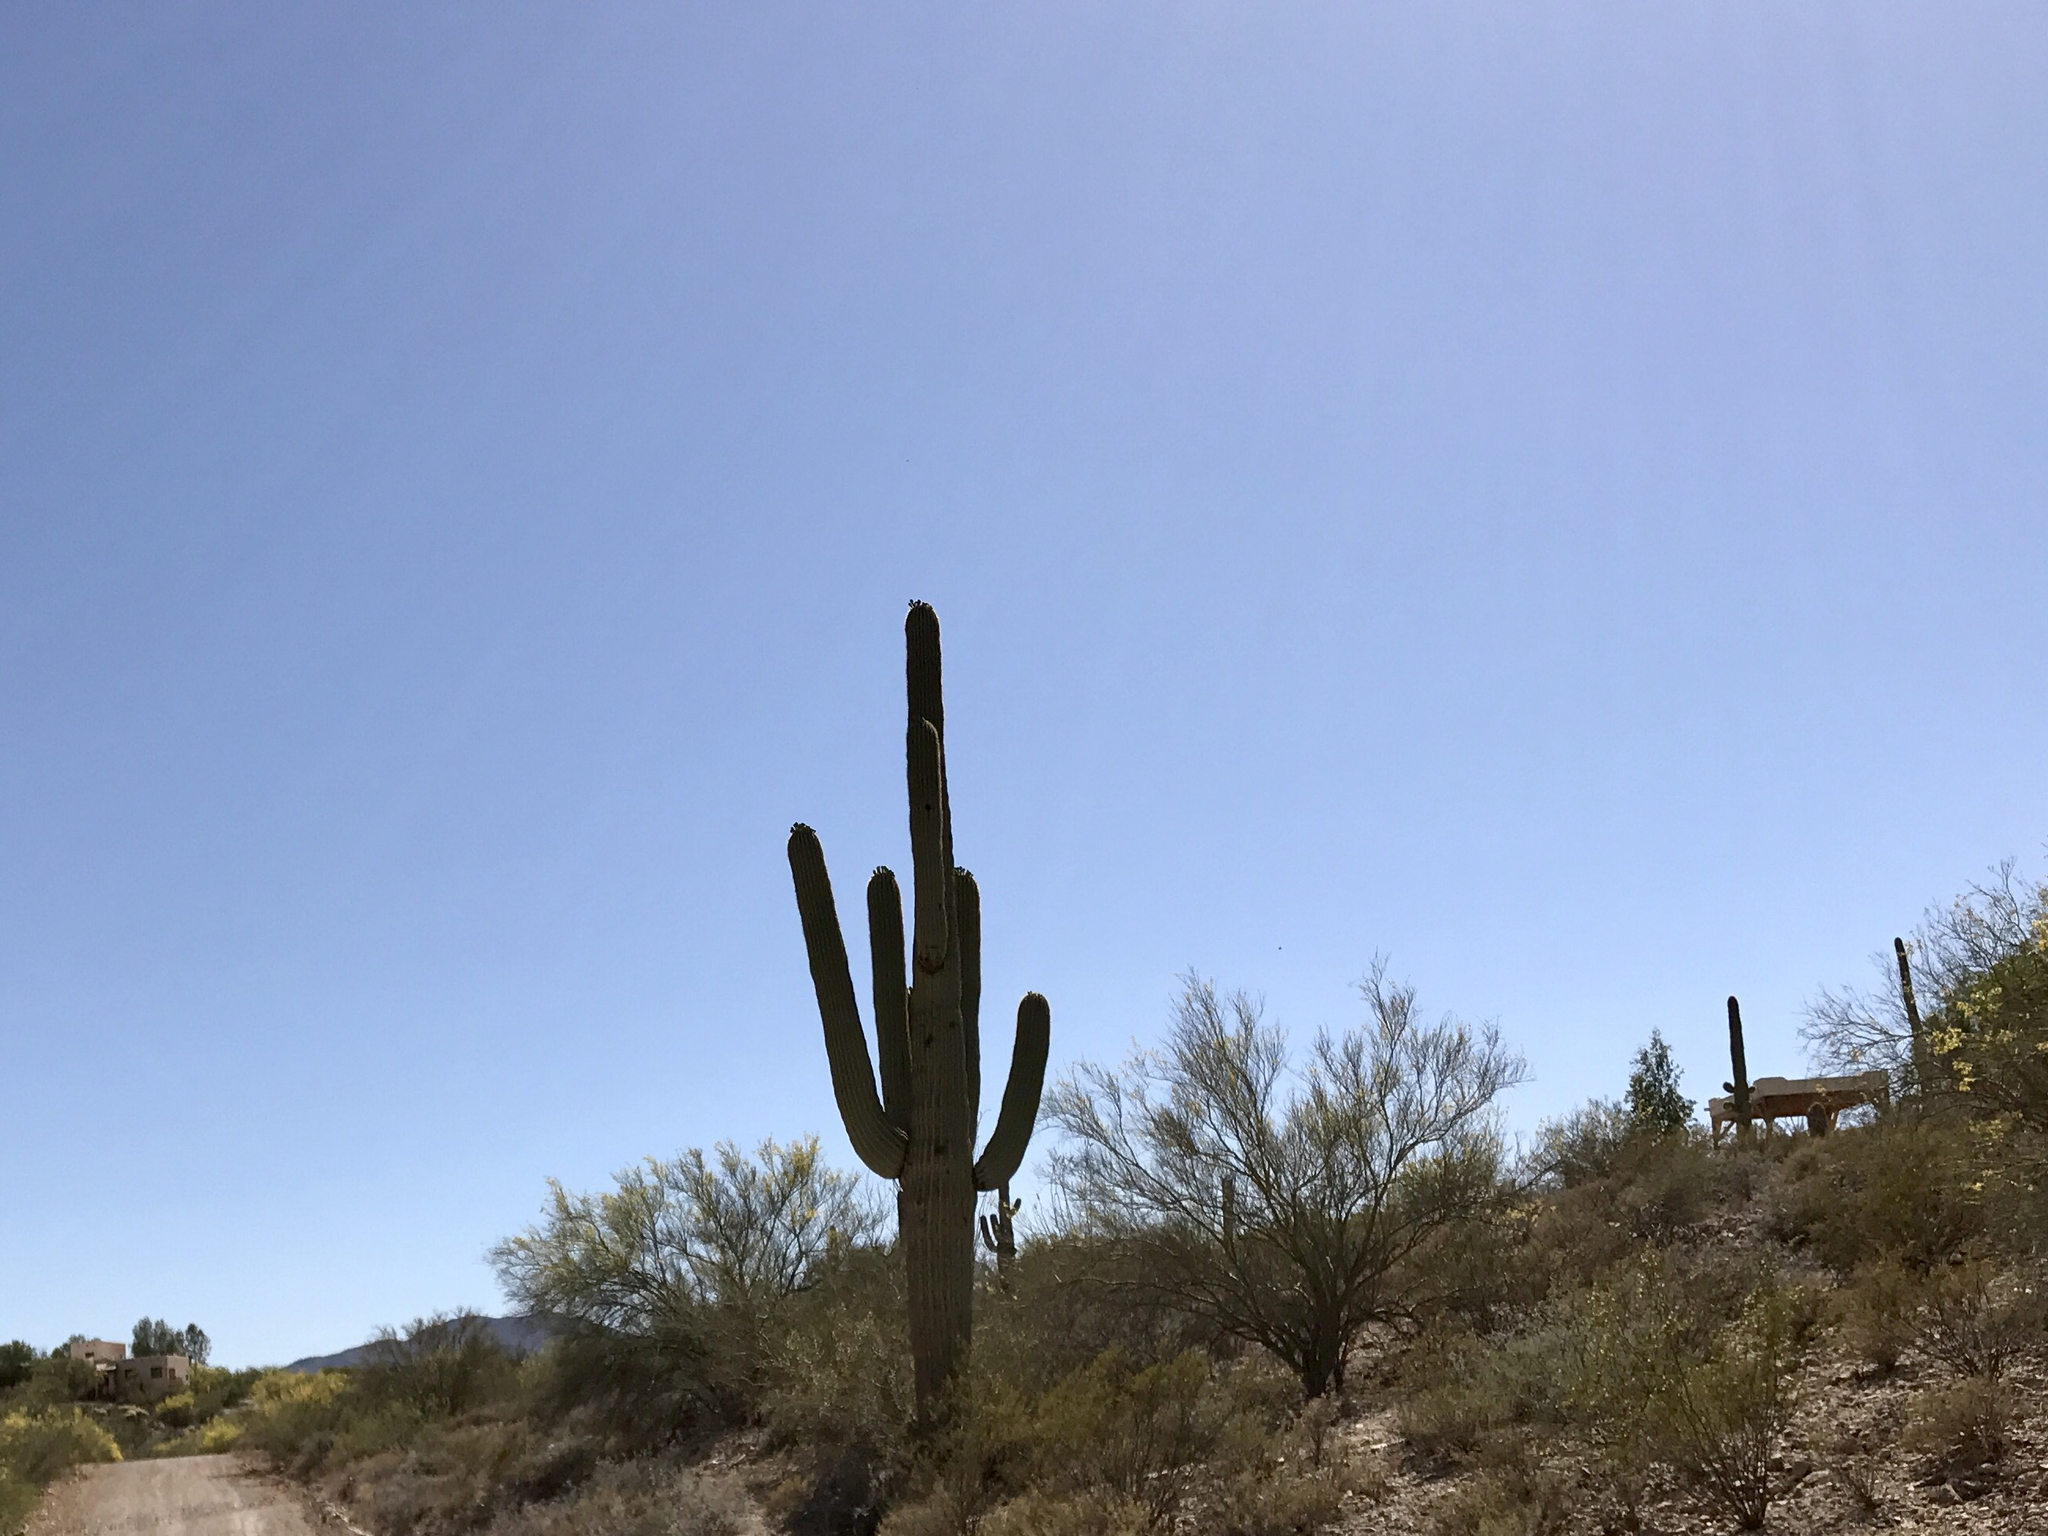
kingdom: Plantae
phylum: Tracheophyta
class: Magnoliopsida
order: Caryophyllales
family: Cactaceae
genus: Carnegiea
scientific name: Carnegiea gigantea
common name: Saguaro
